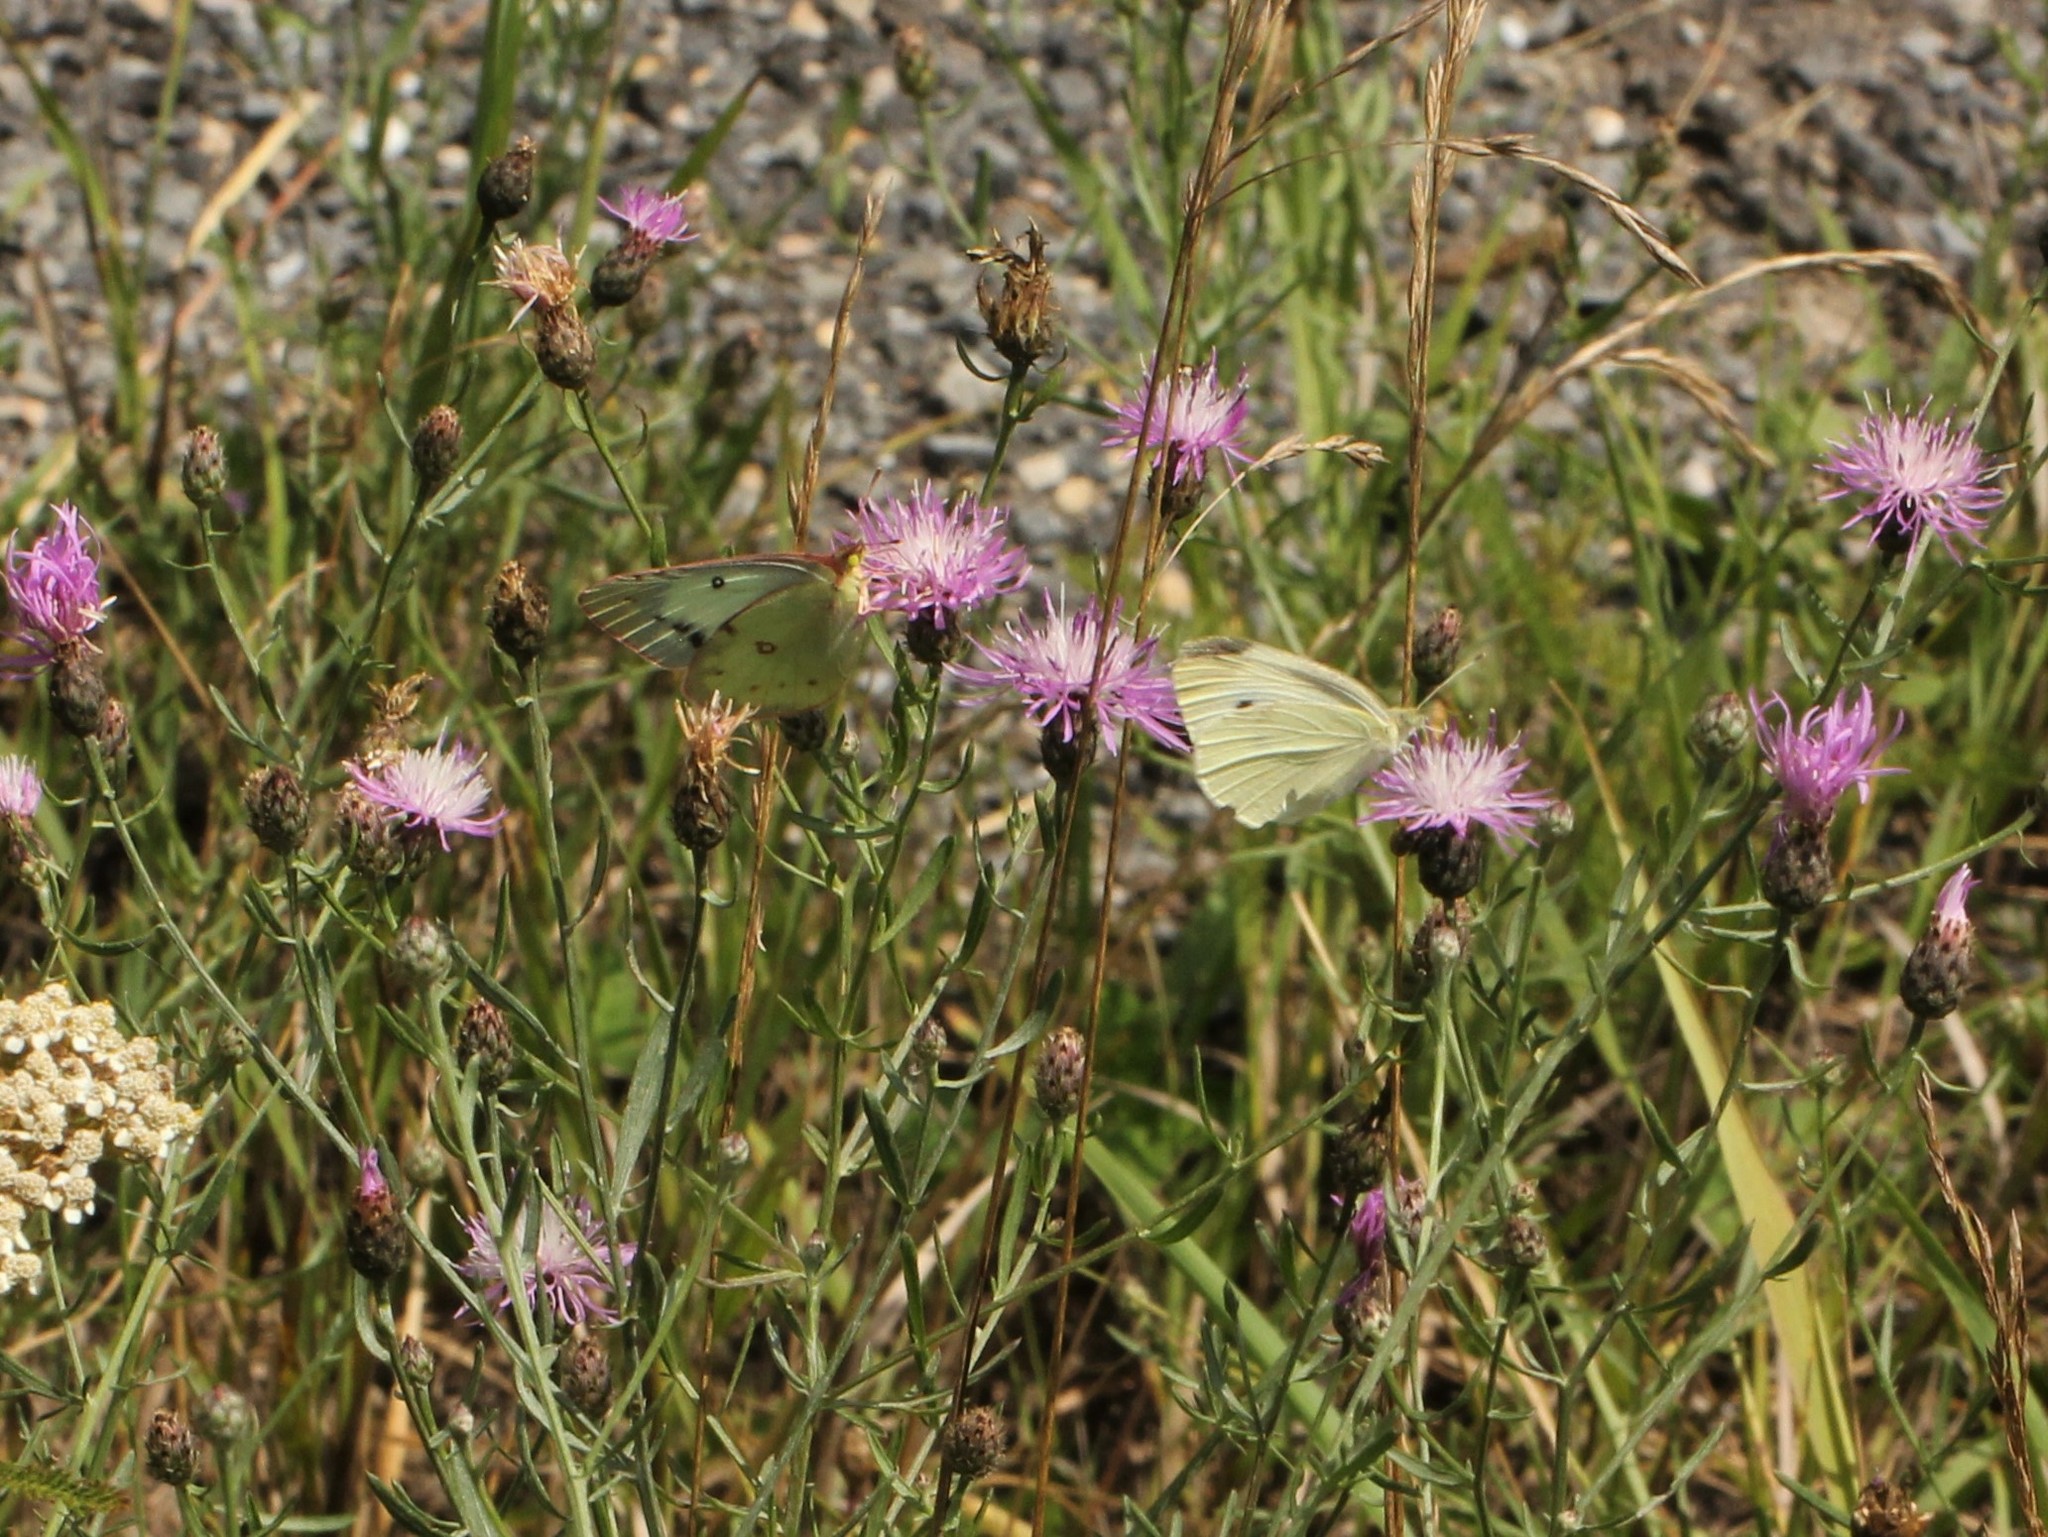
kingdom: Animalia
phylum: Arthropoda
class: Insecta
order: Lepidoptera
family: Pieridae
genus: Pieris
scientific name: Pieris rapae
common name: Small white
